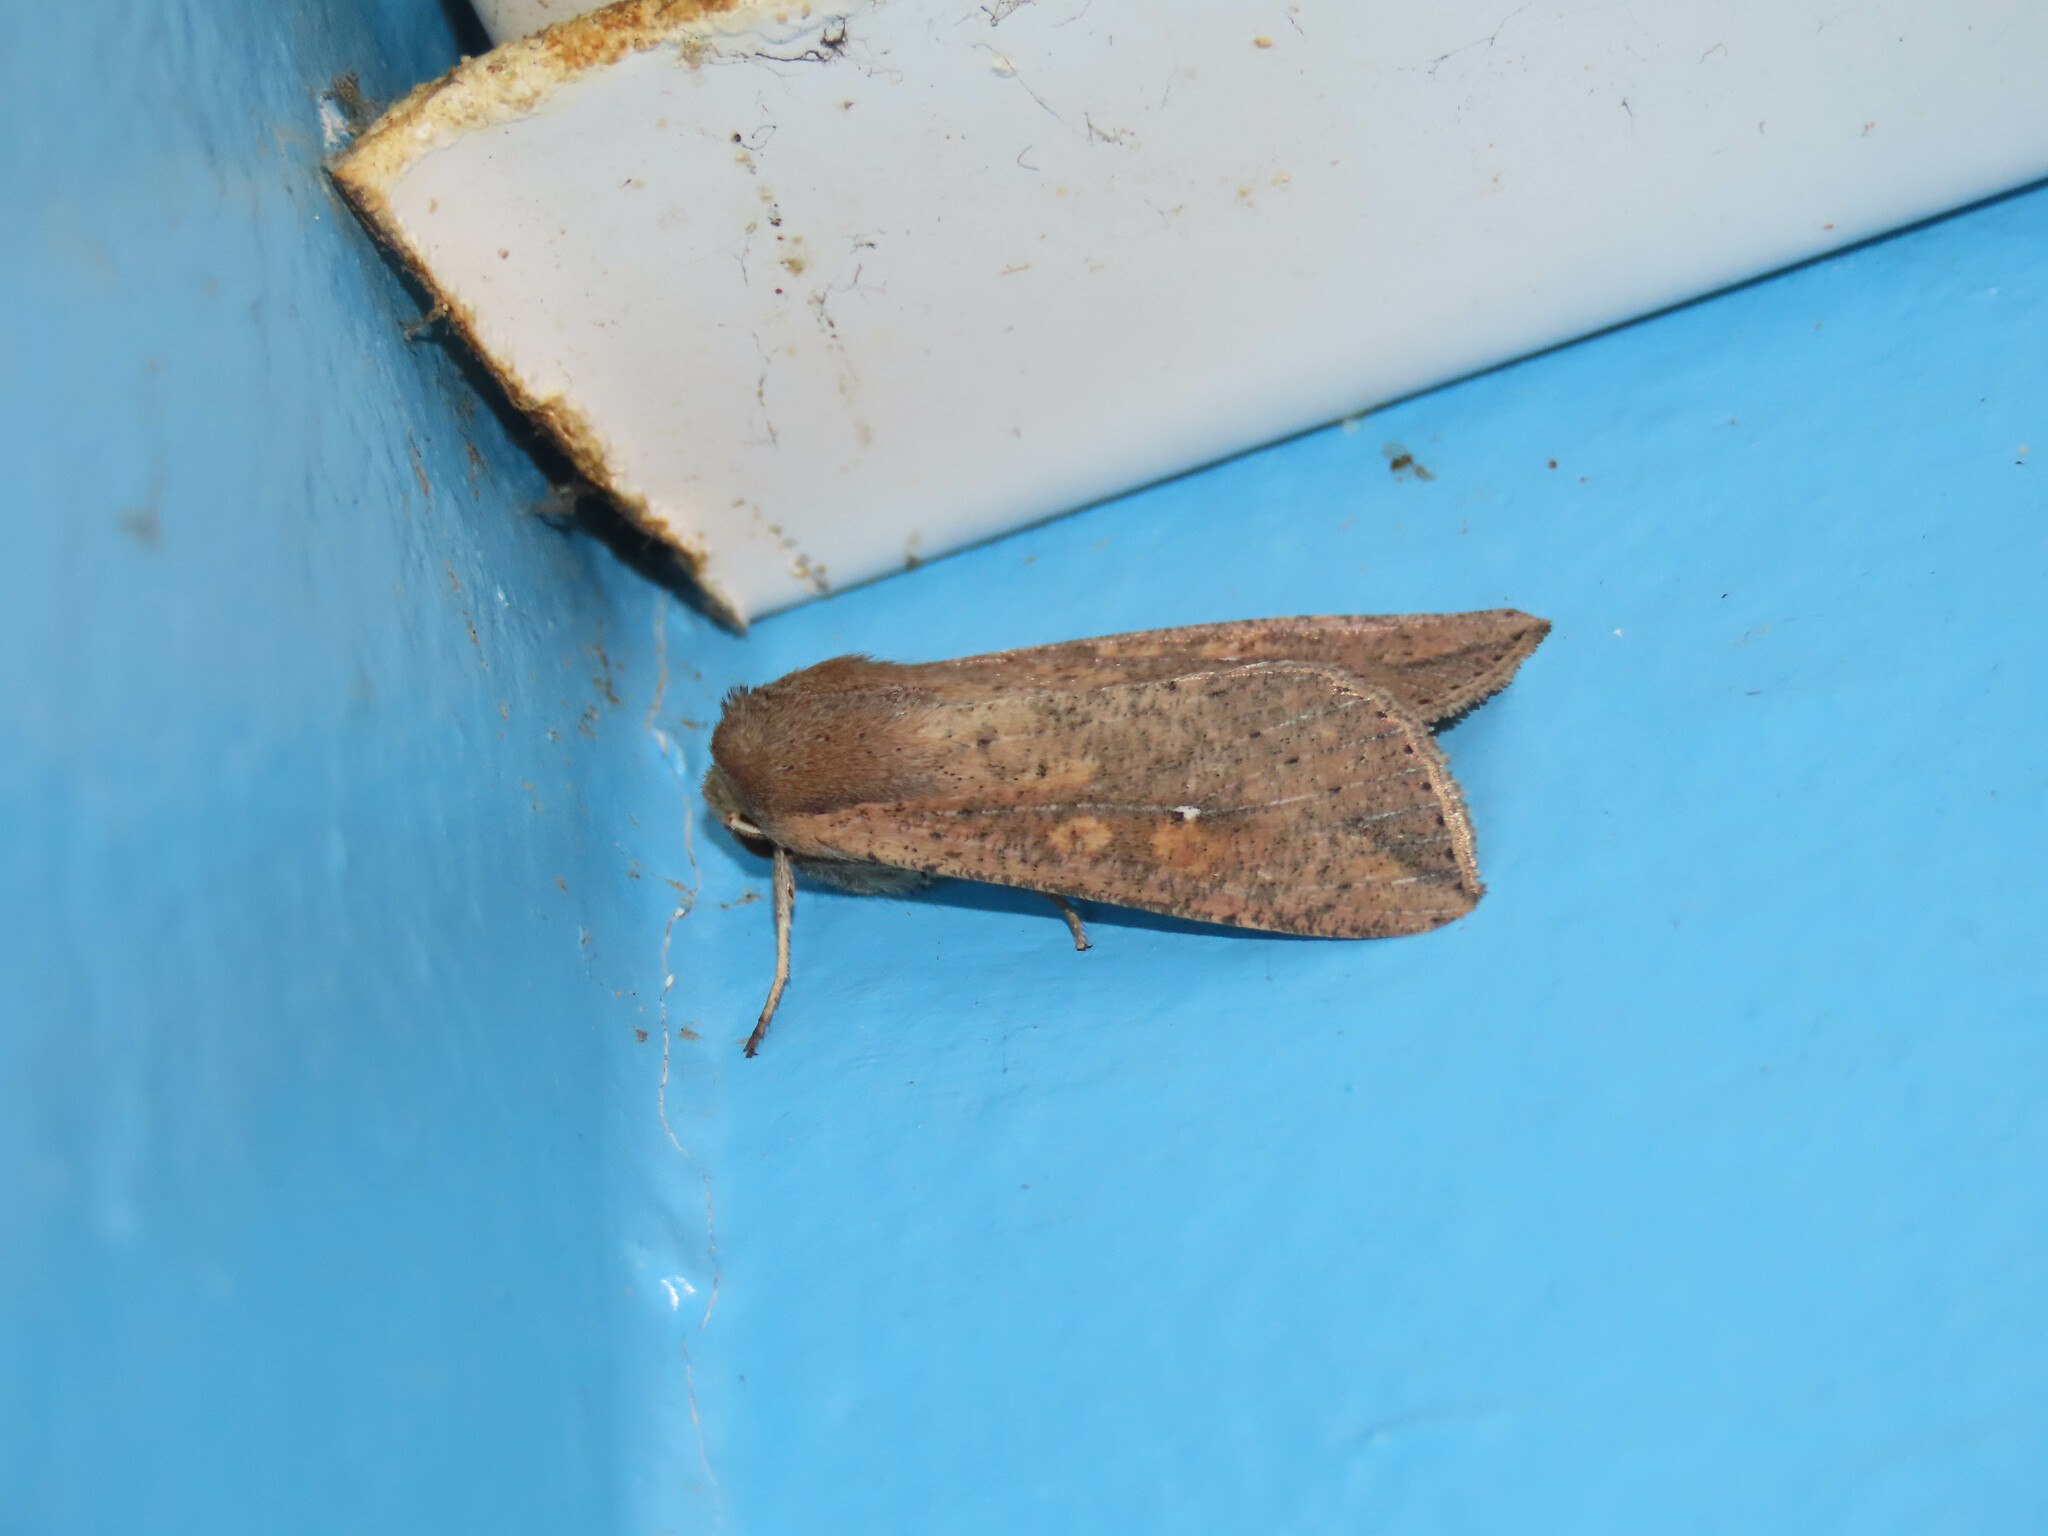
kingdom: Animalia
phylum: Arthropoda
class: Insecta
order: Lepidoptera
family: Noctuidae
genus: Mythimna
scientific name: Mythimna unipuncta
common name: White-speck
